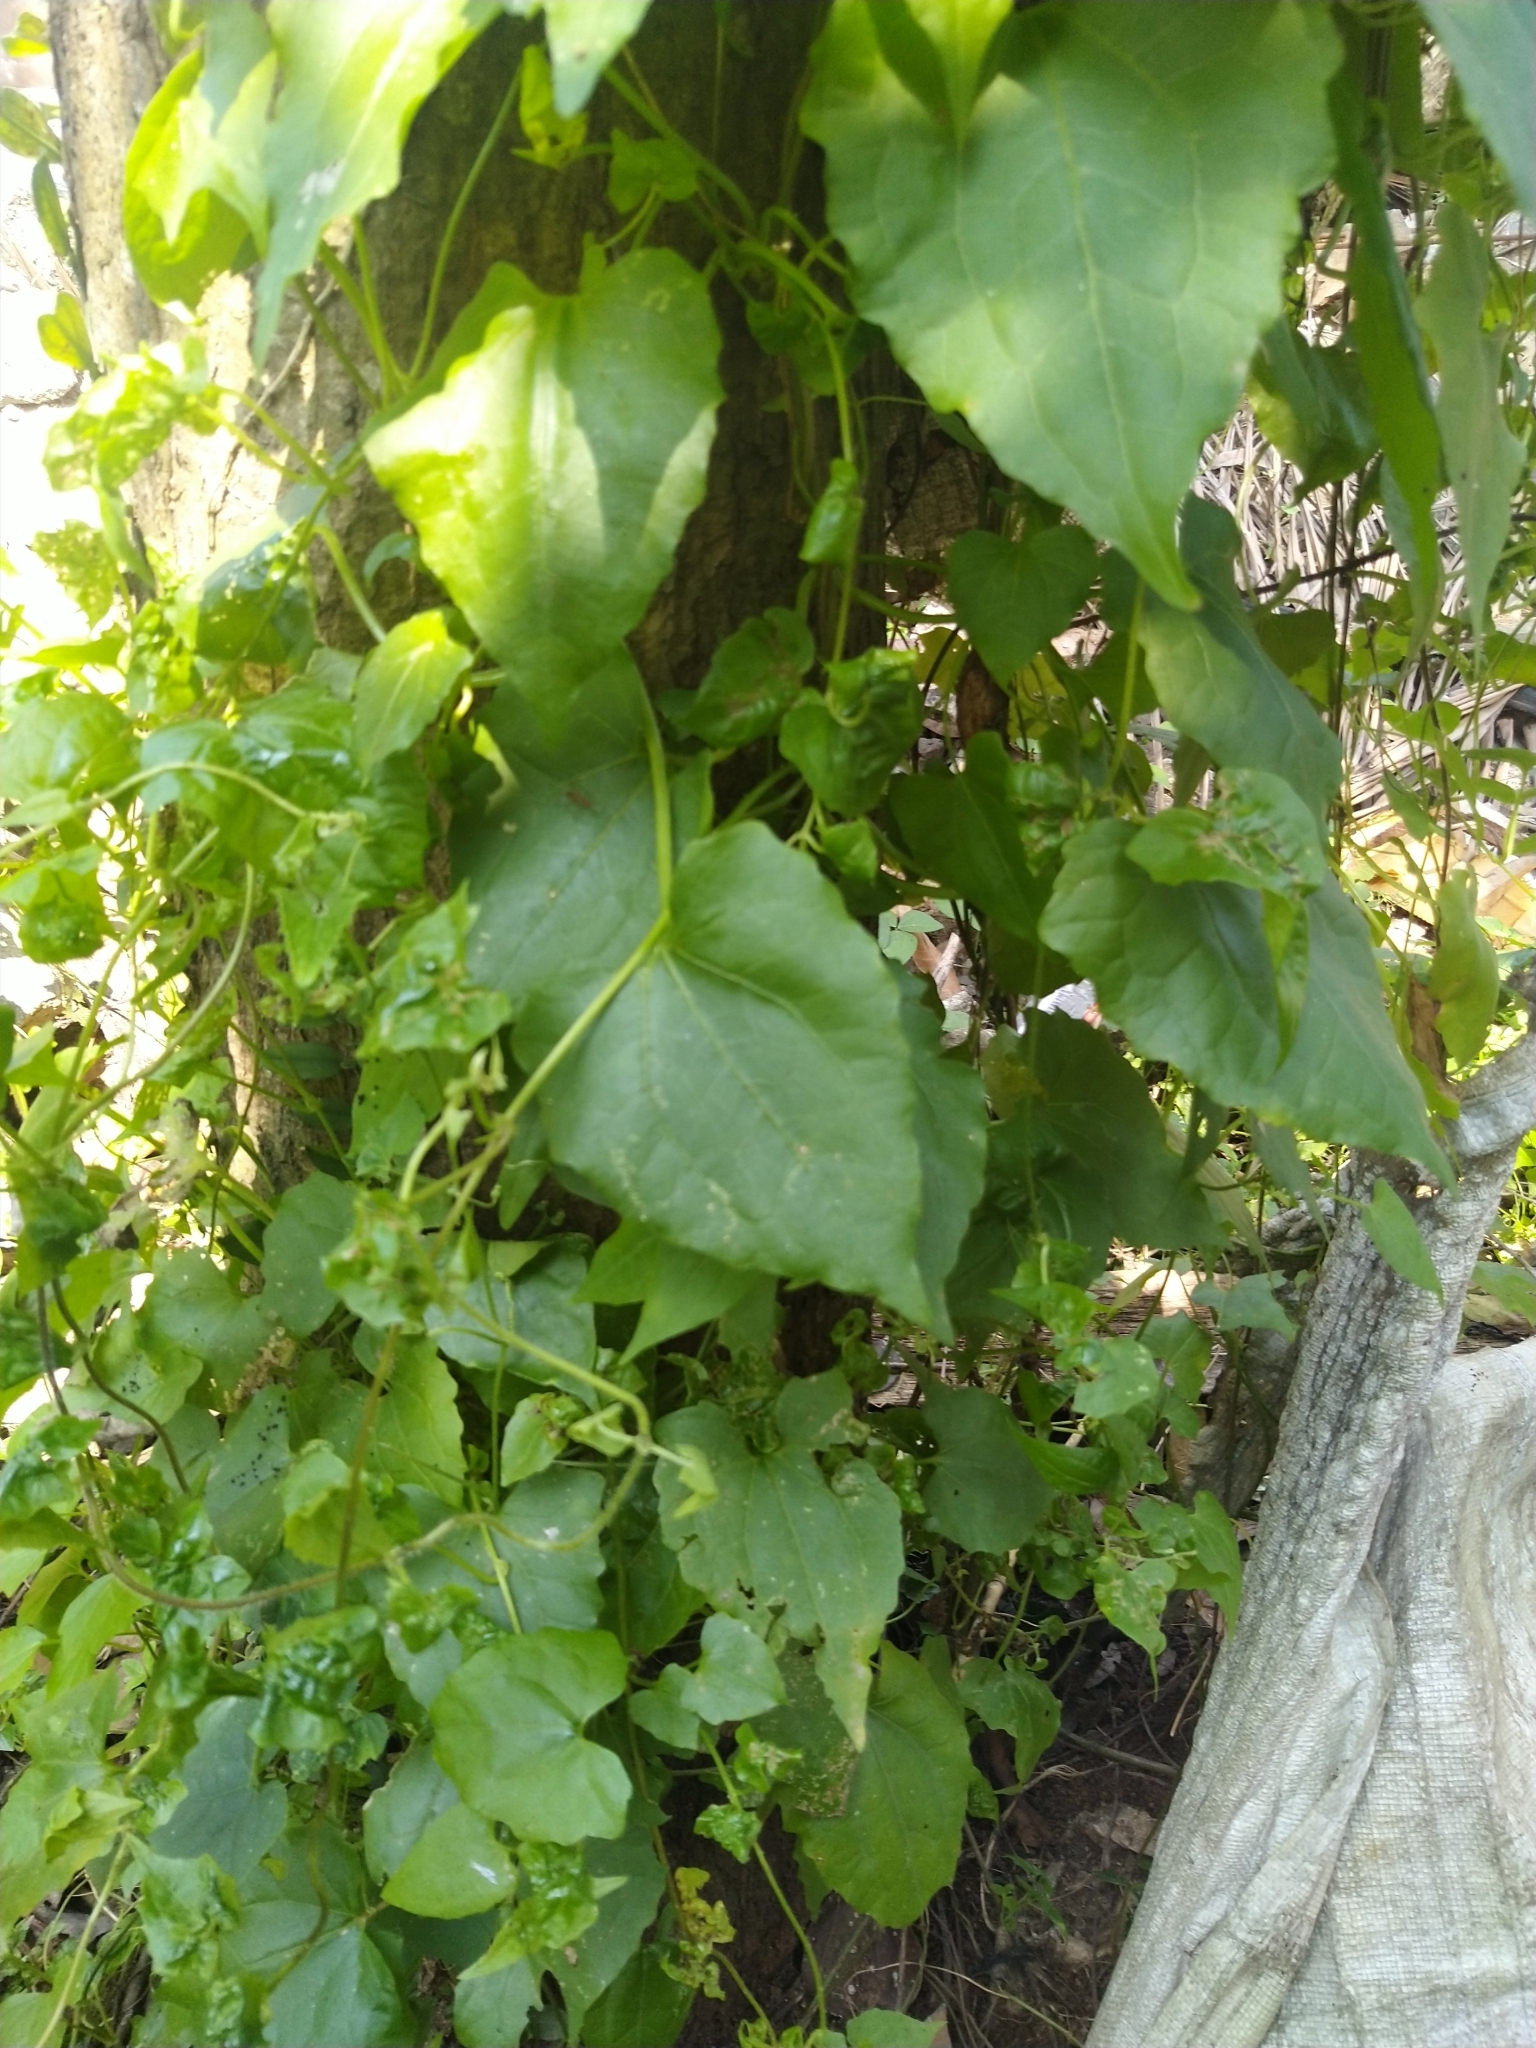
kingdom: Plantae
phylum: Tracheophyta
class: Magnoliopsida
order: Asterales
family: Asteraceae
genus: Mikania
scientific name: Mikania micrantha
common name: Mile-a-minute
